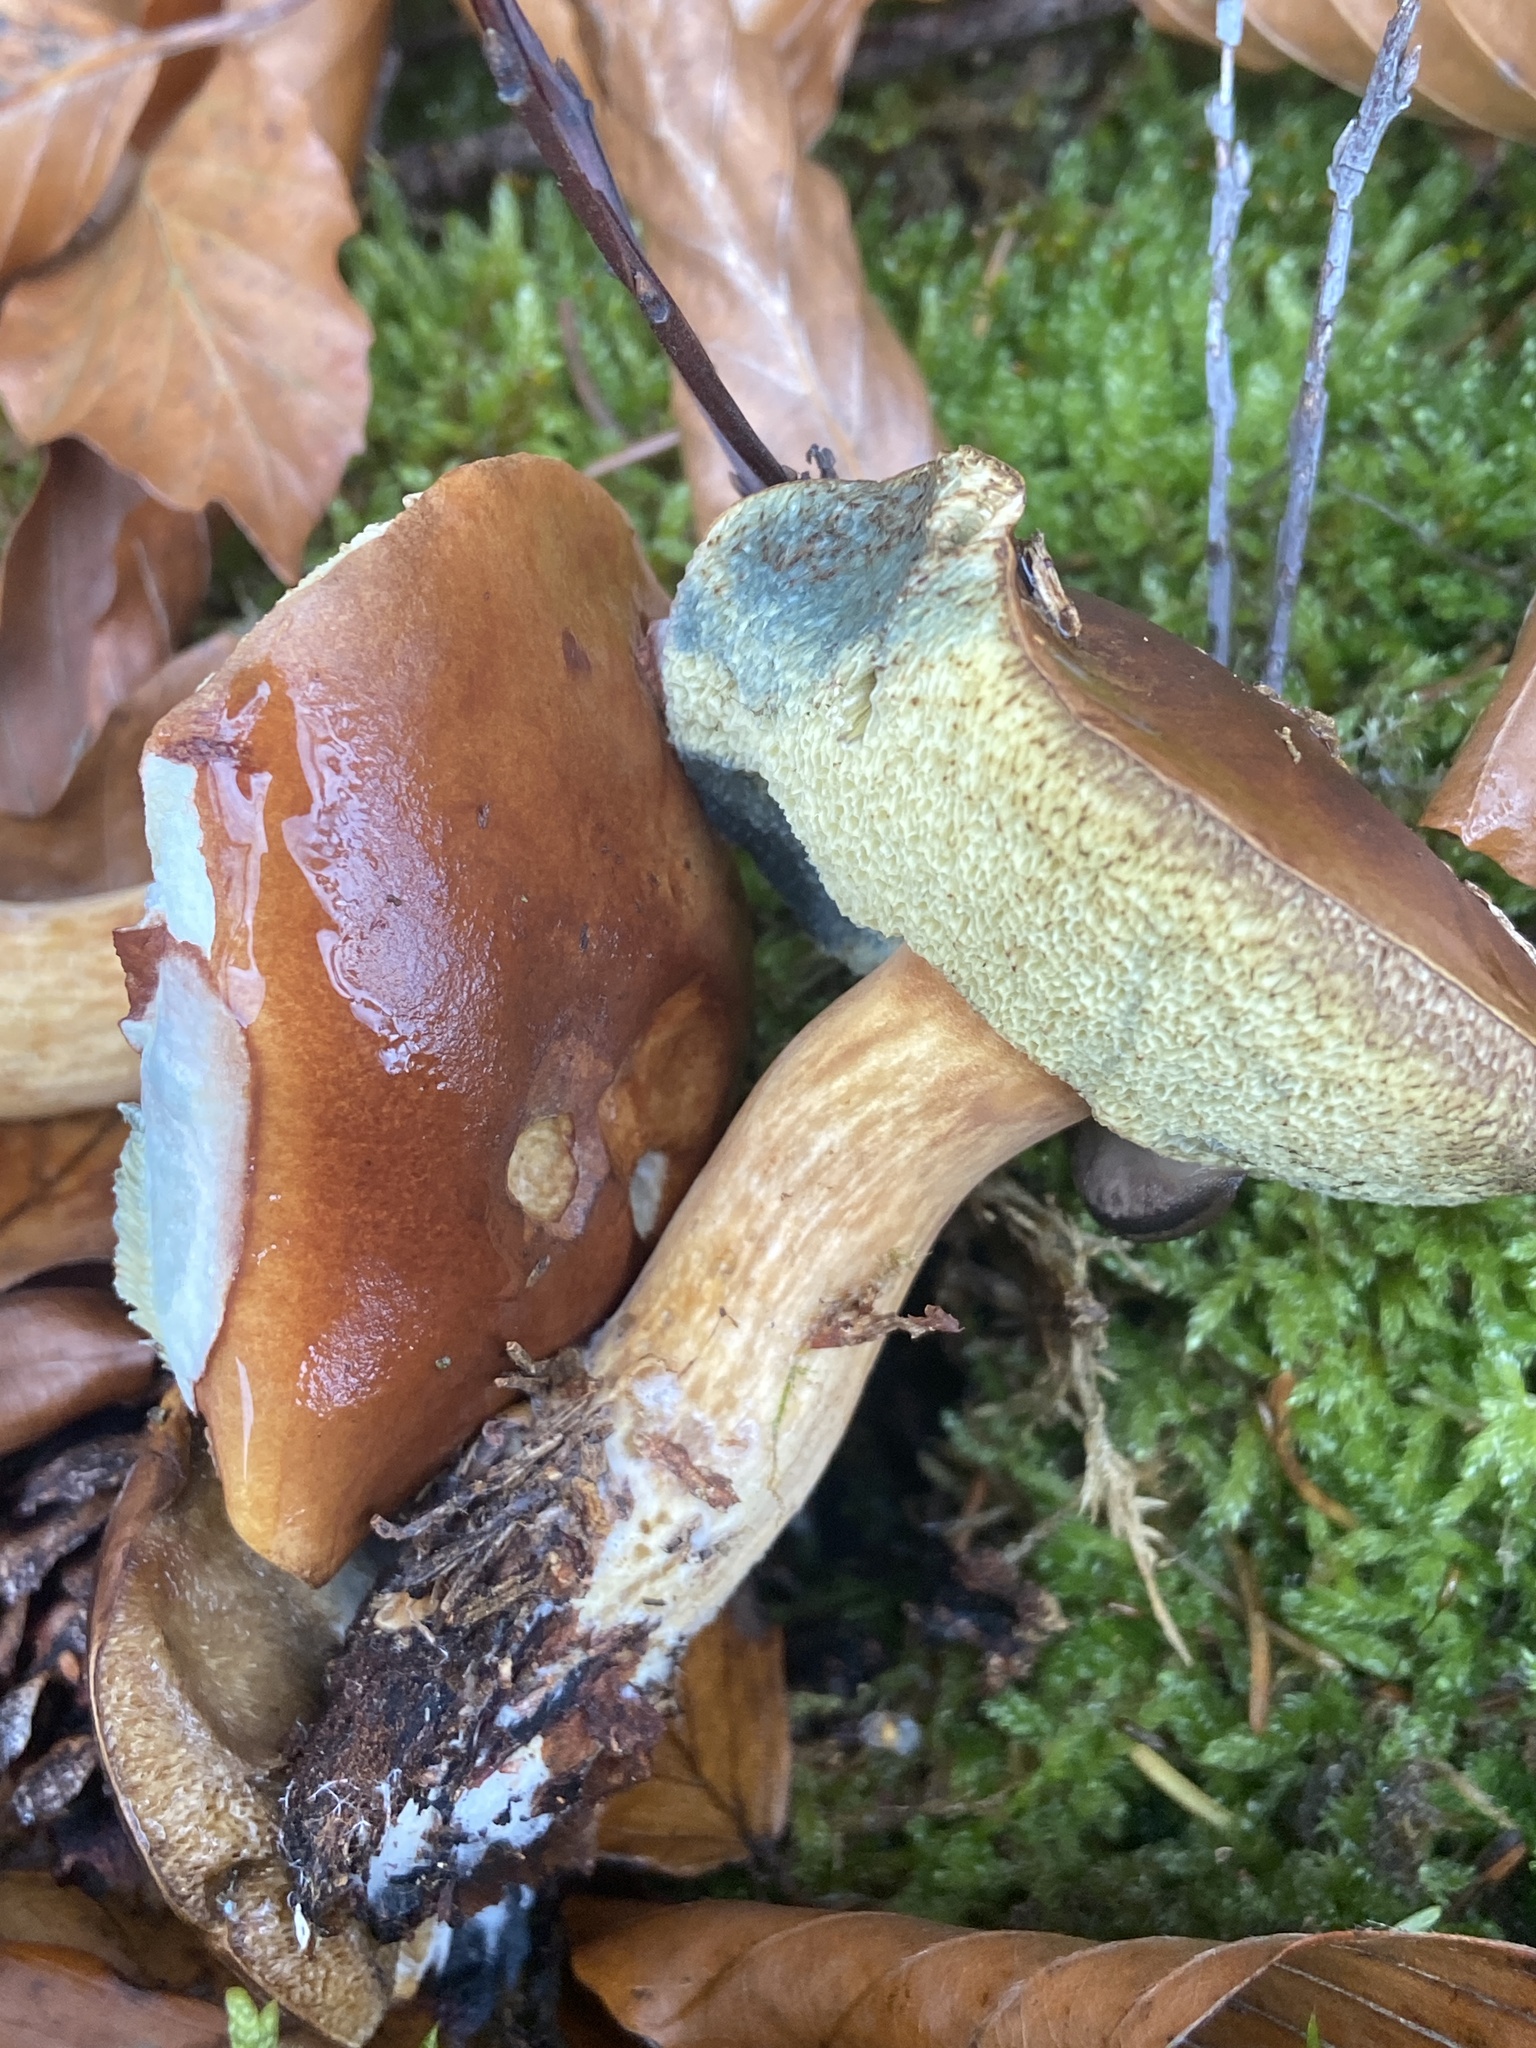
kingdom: Fungi
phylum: Basidiomycota
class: Agaricomycetes
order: Boletales
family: Boletaceae
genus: Imleria
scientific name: Imleria badia
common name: Bay bolete
